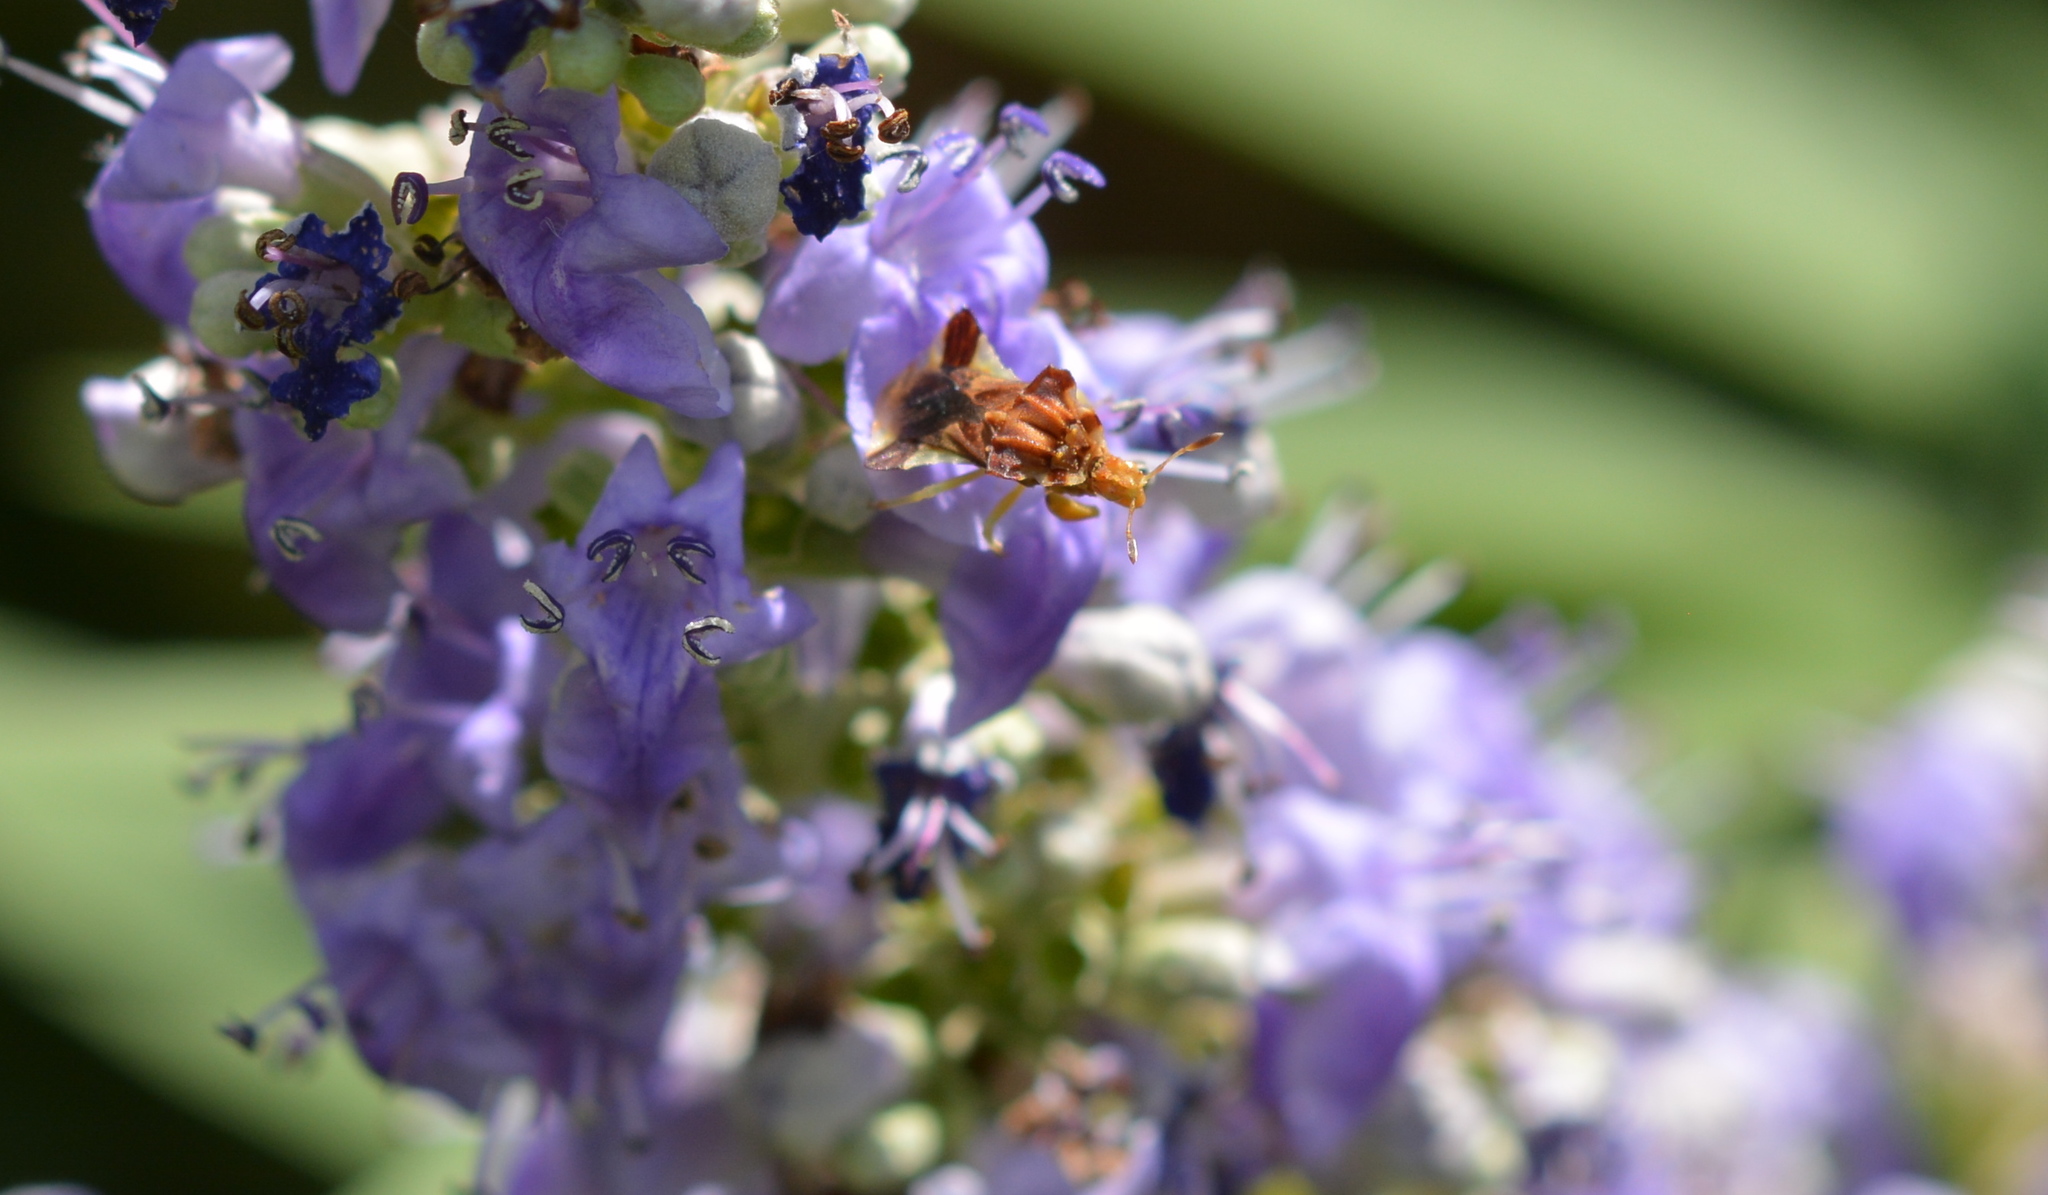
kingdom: Animalia
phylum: Arthropoda
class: Insecta
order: Hemiptera
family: Reduviidae
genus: Phymata
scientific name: Phymata fasciata
